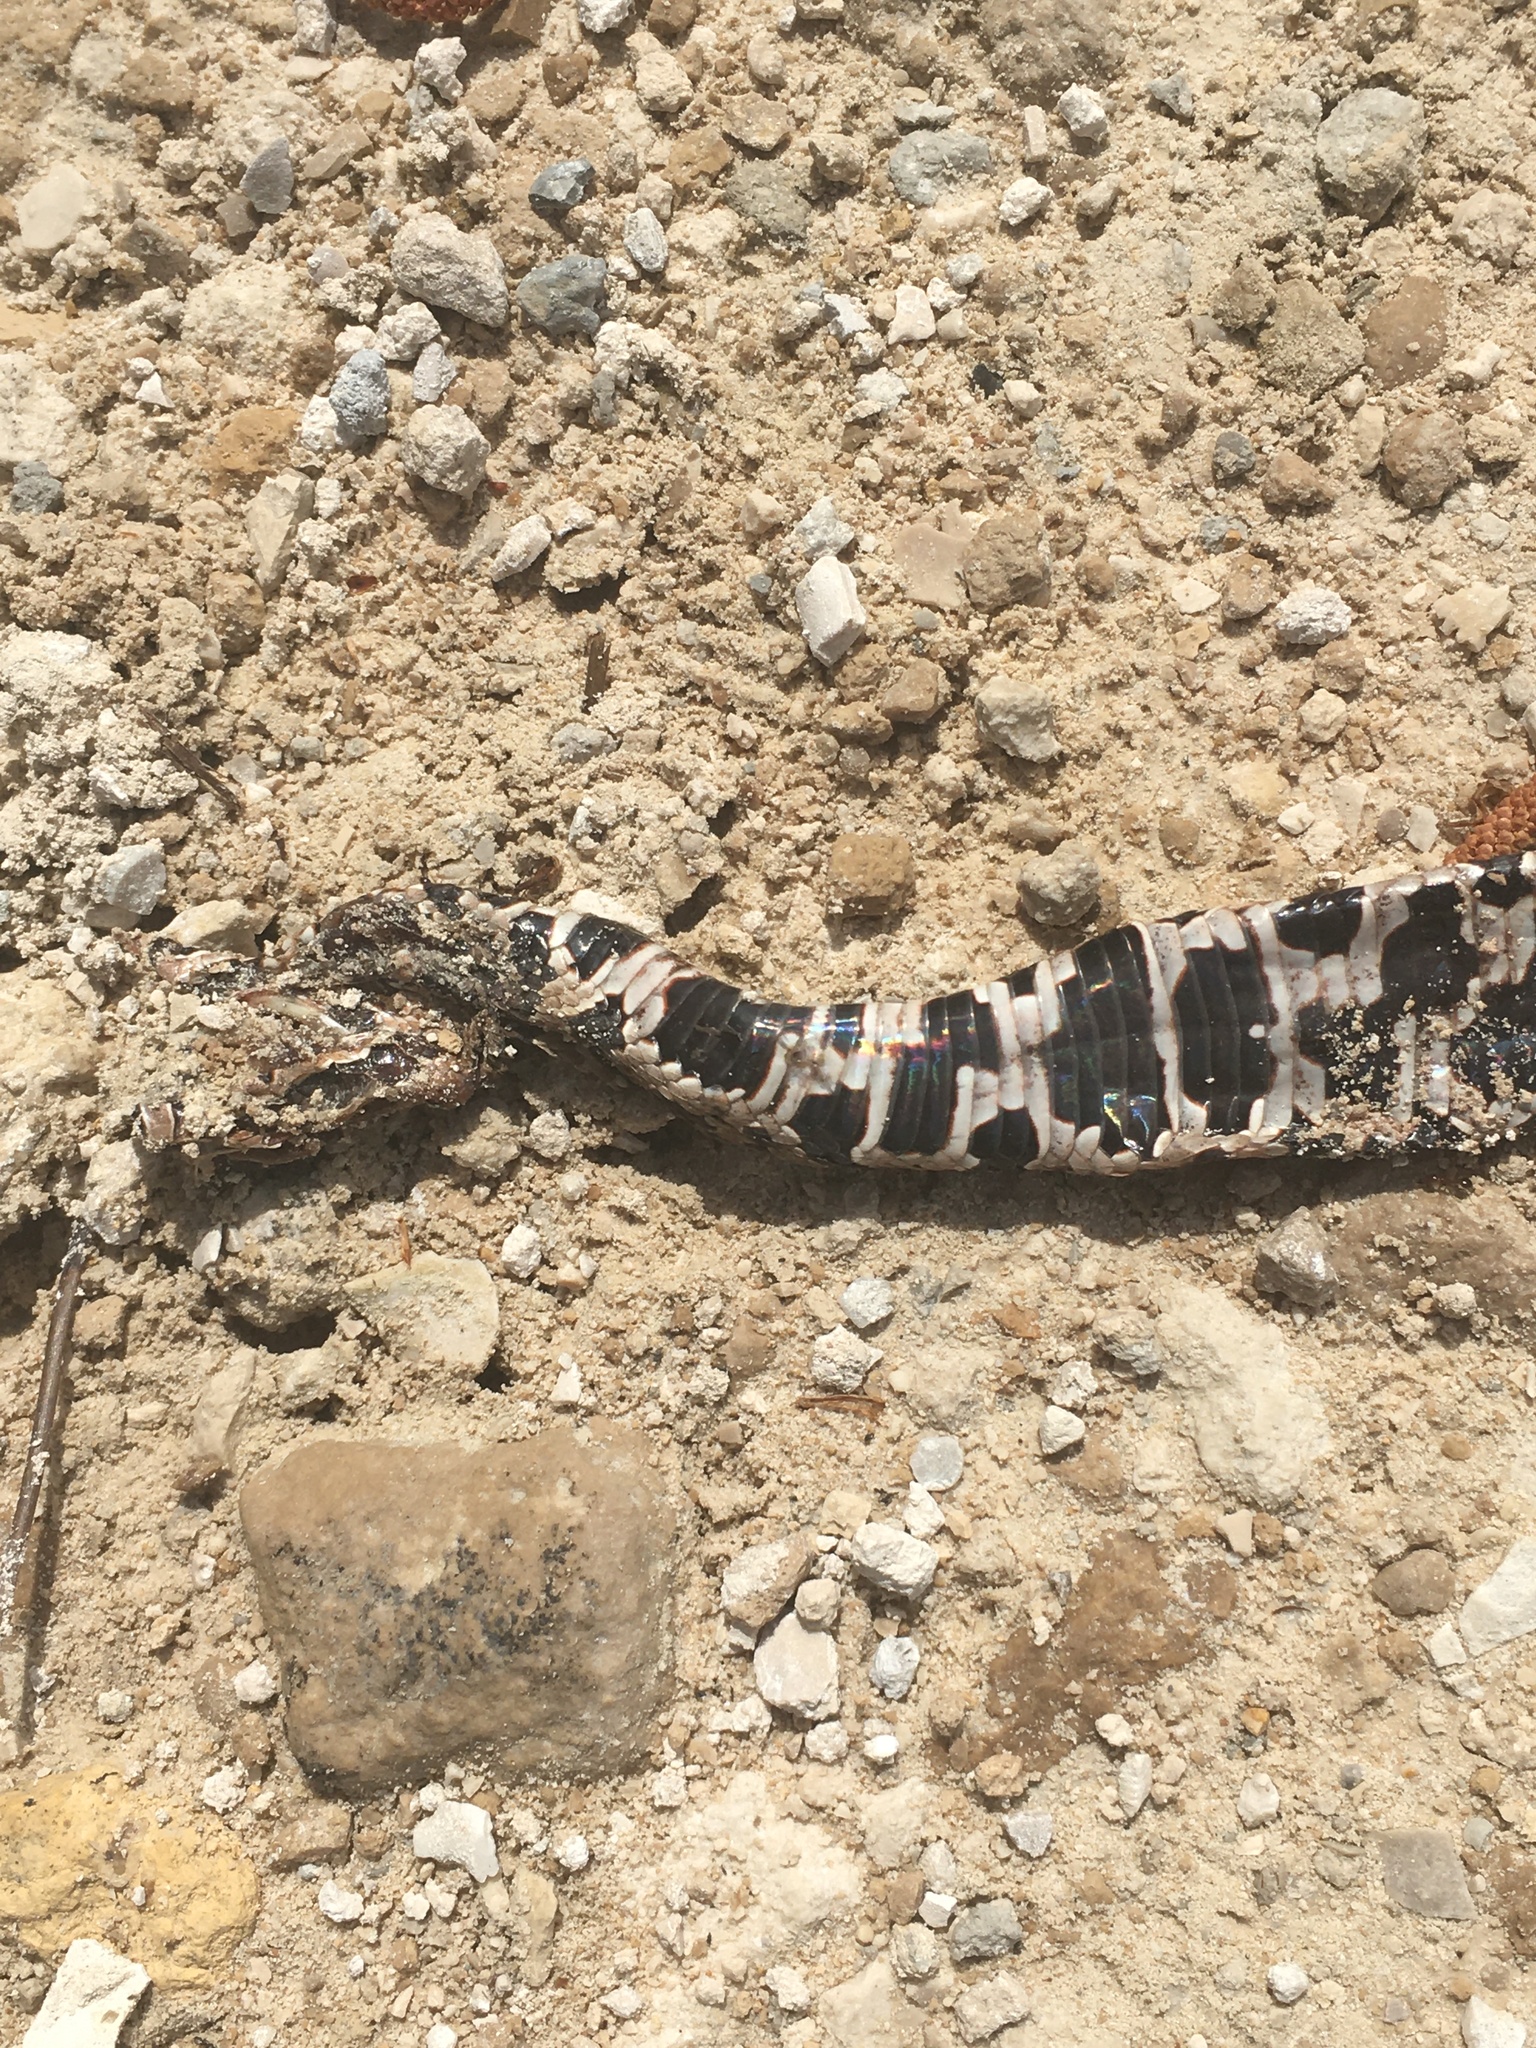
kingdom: Animalia
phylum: Chordata
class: Squamata
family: Viperidae
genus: Agkistrodon
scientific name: Agkistrodon conanti
